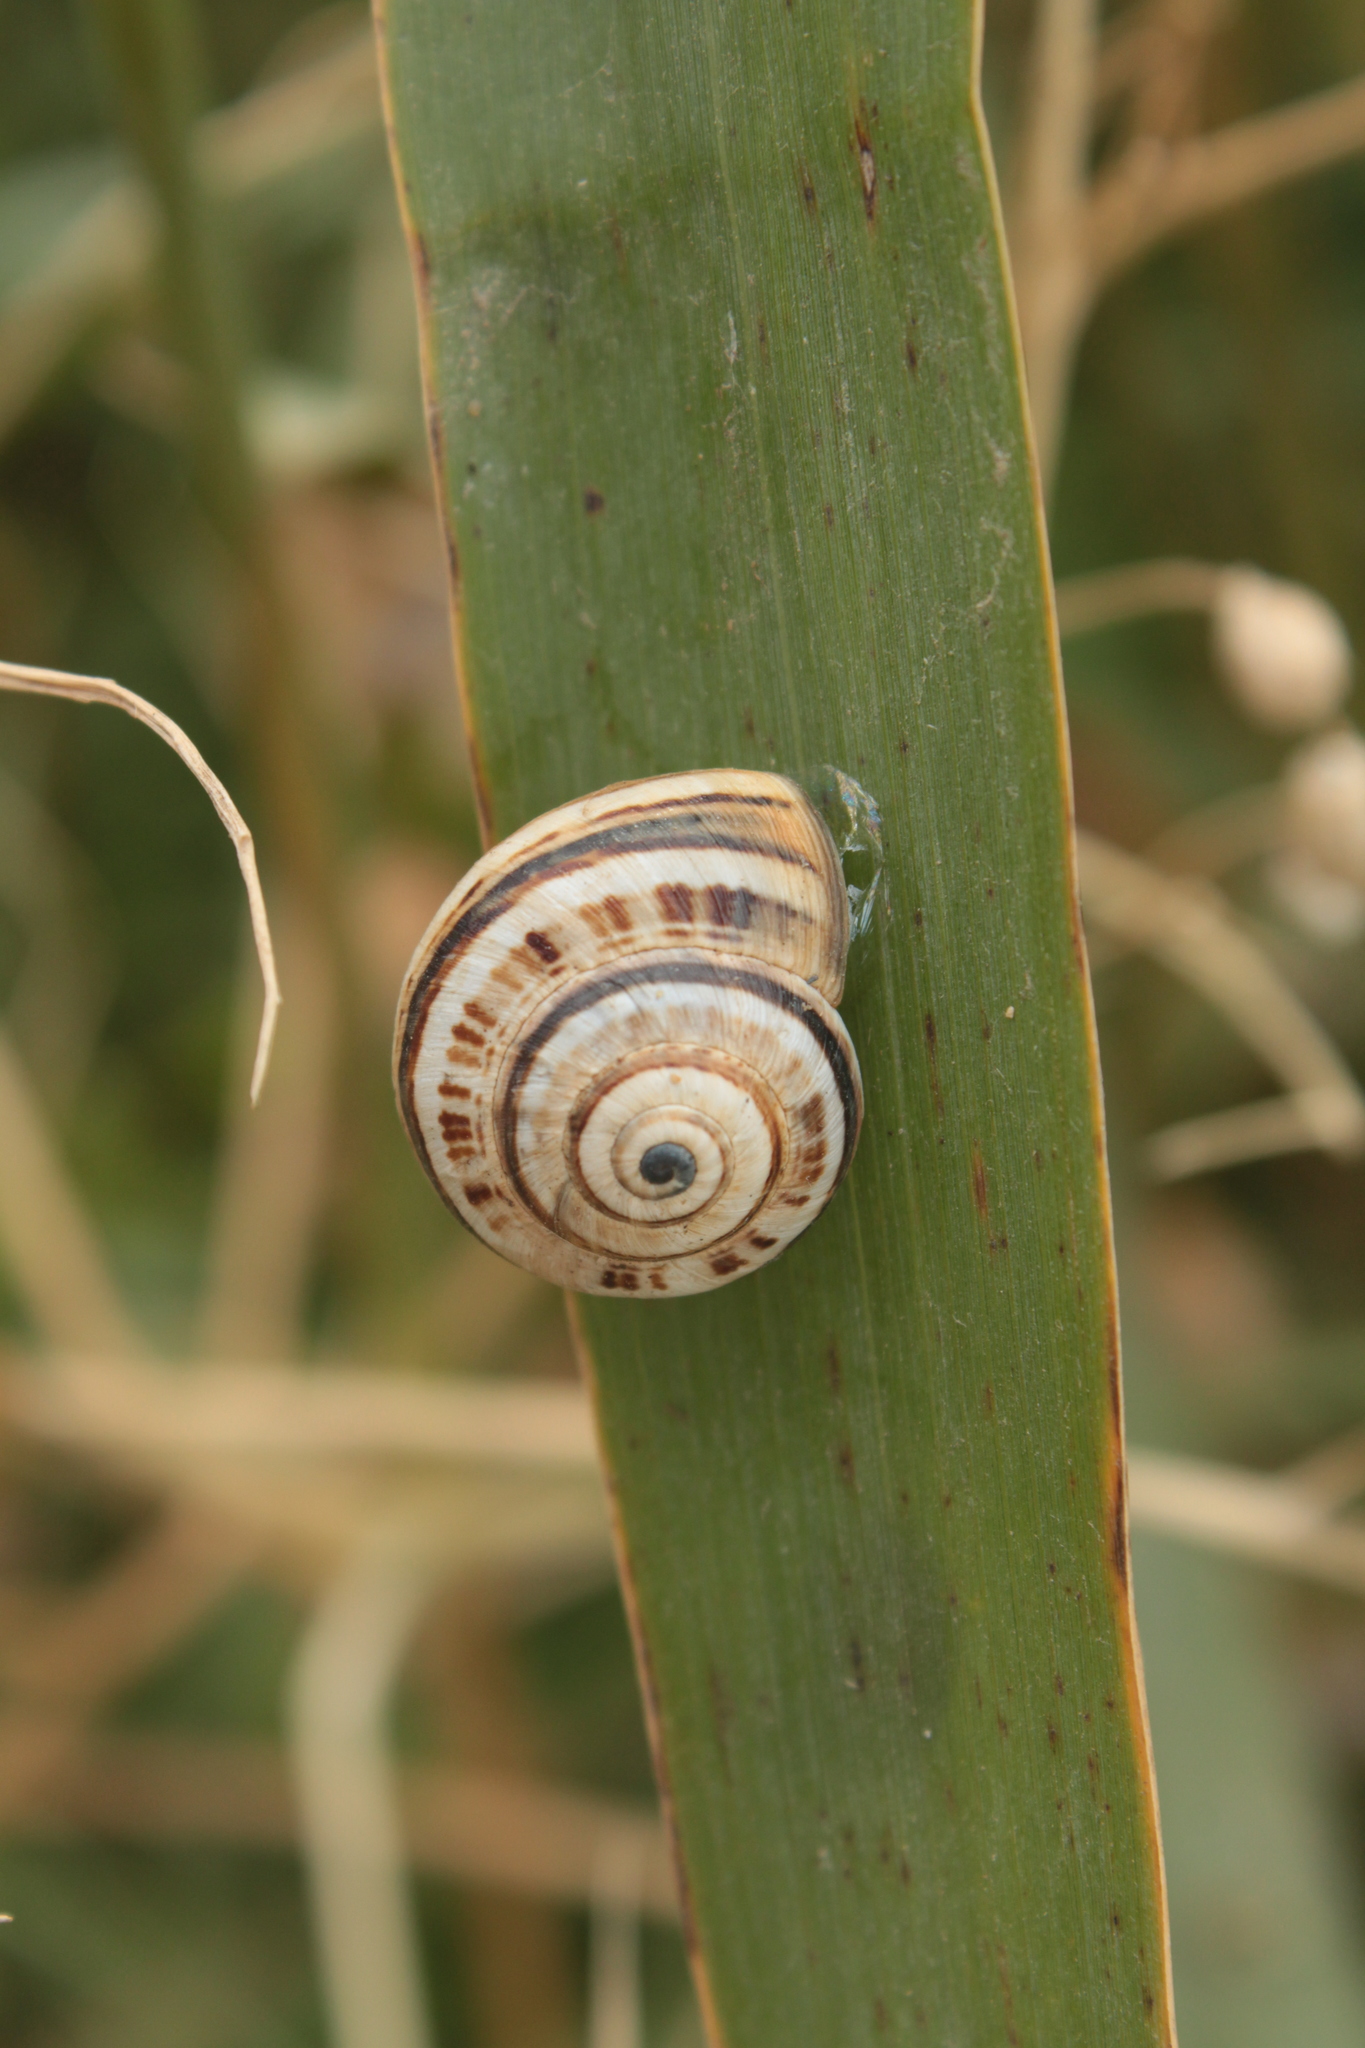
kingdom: Animalia
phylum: Mollusca
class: Gastropoda
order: Stylommatophora
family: Helicidae
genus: Theba
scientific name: Theba pisana
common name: White snail
